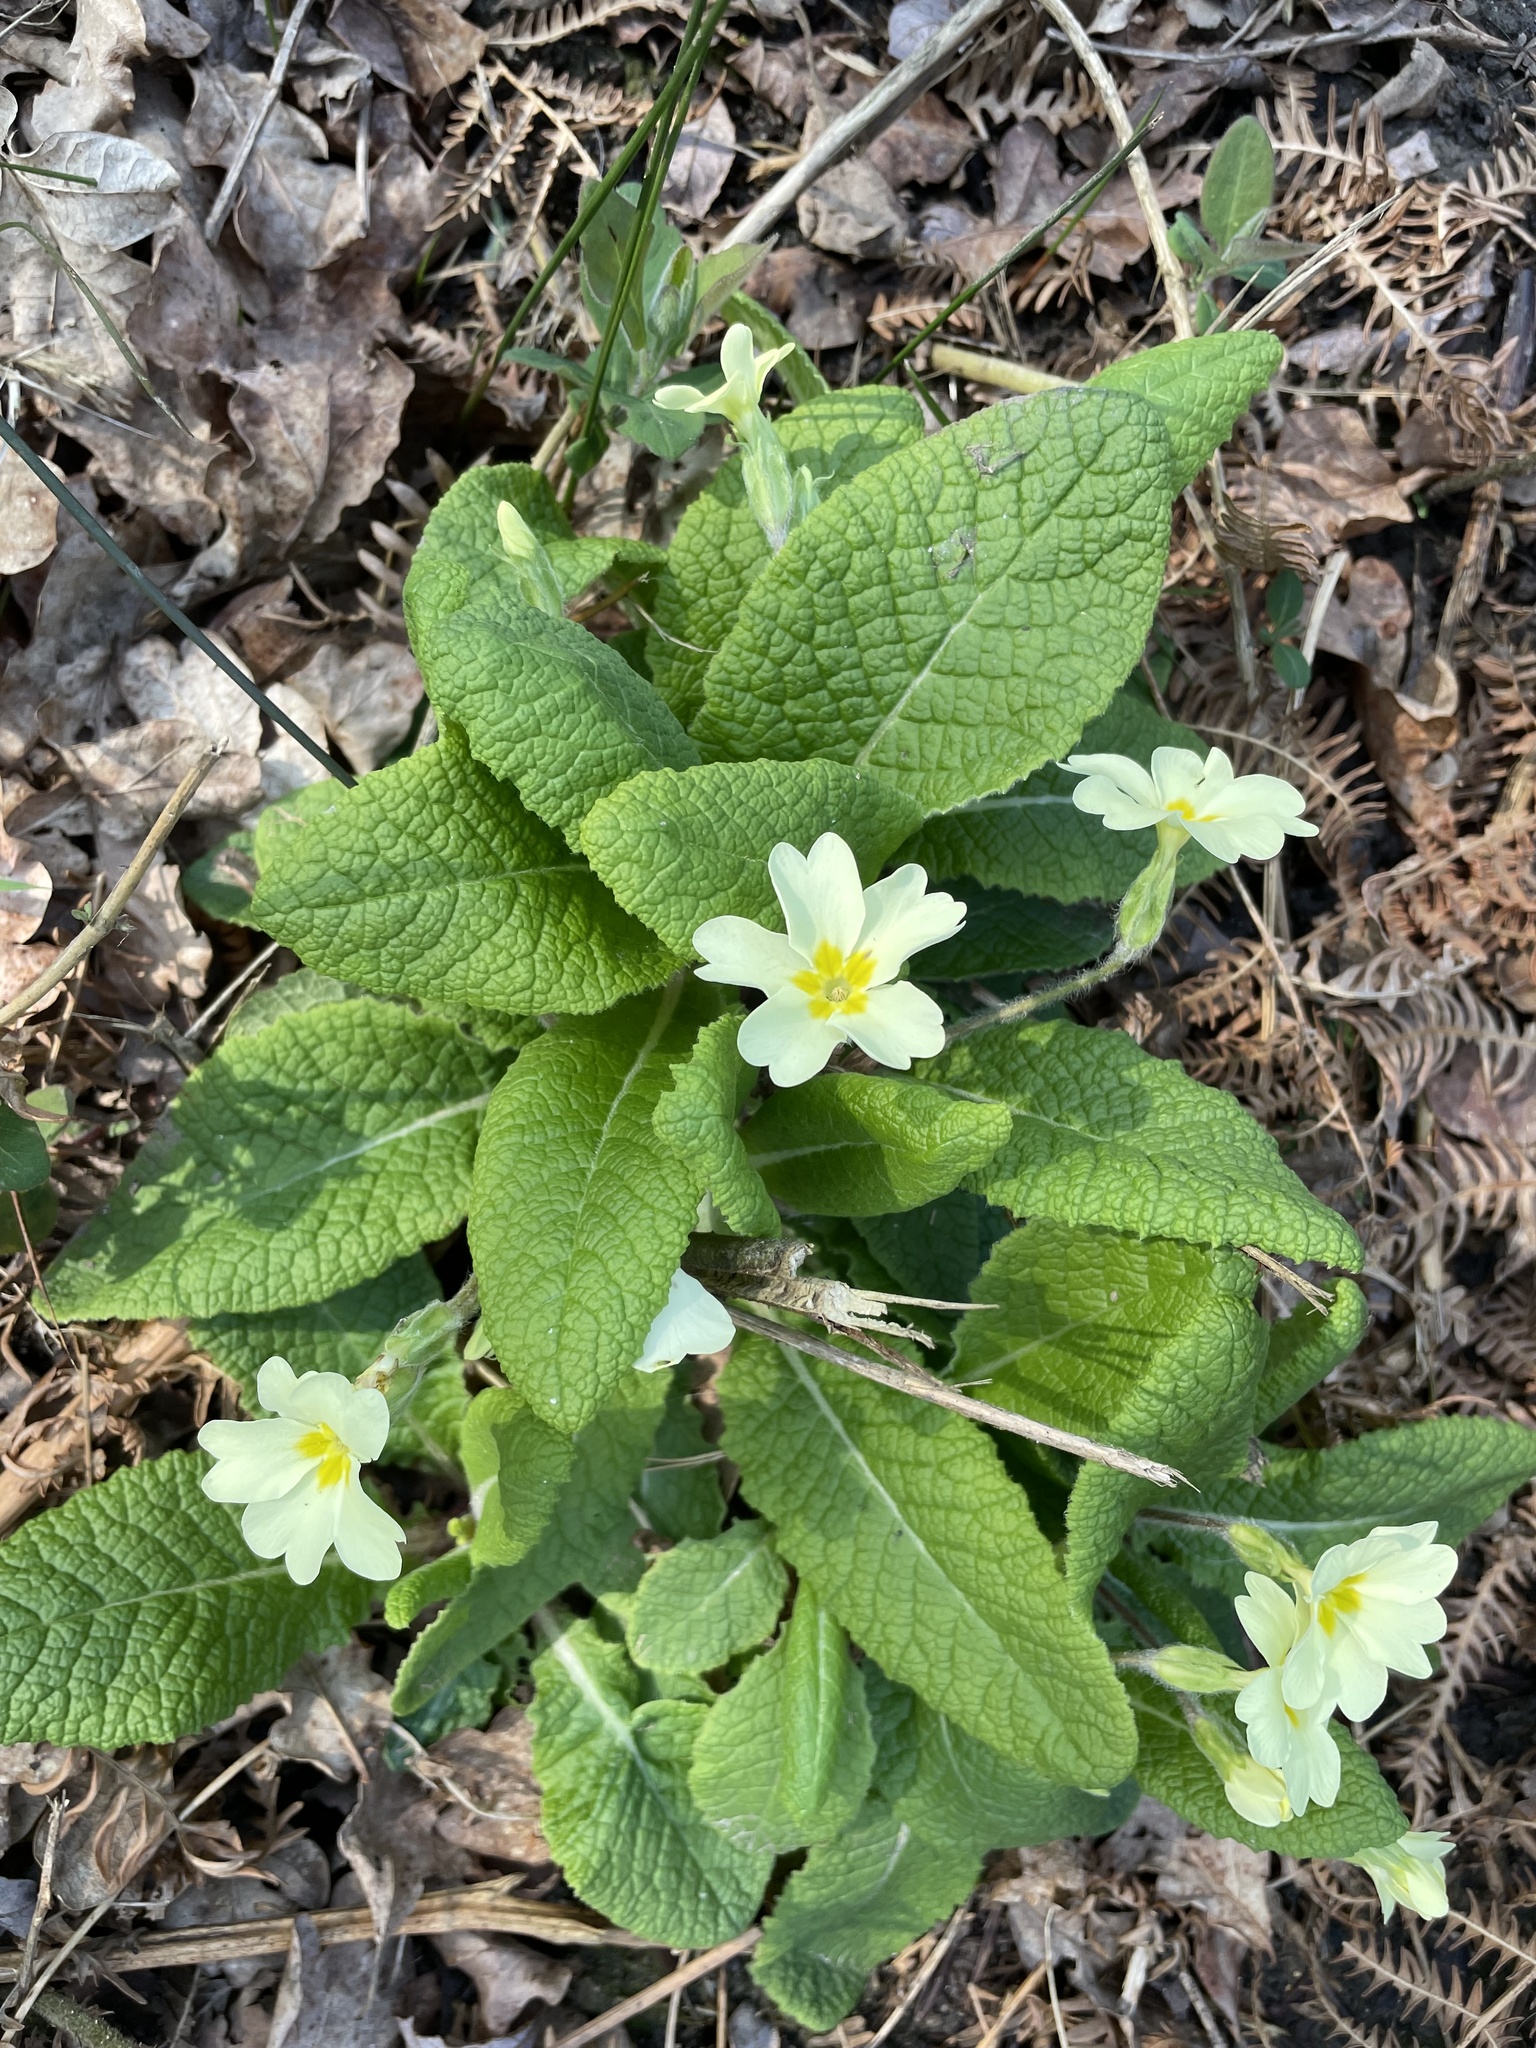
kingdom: Plantae
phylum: Tracheophyta
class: Magnoliopsida
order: Ericales
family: Primulaceae
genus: Primula
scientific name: Primula vulgaris
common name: Primrose
